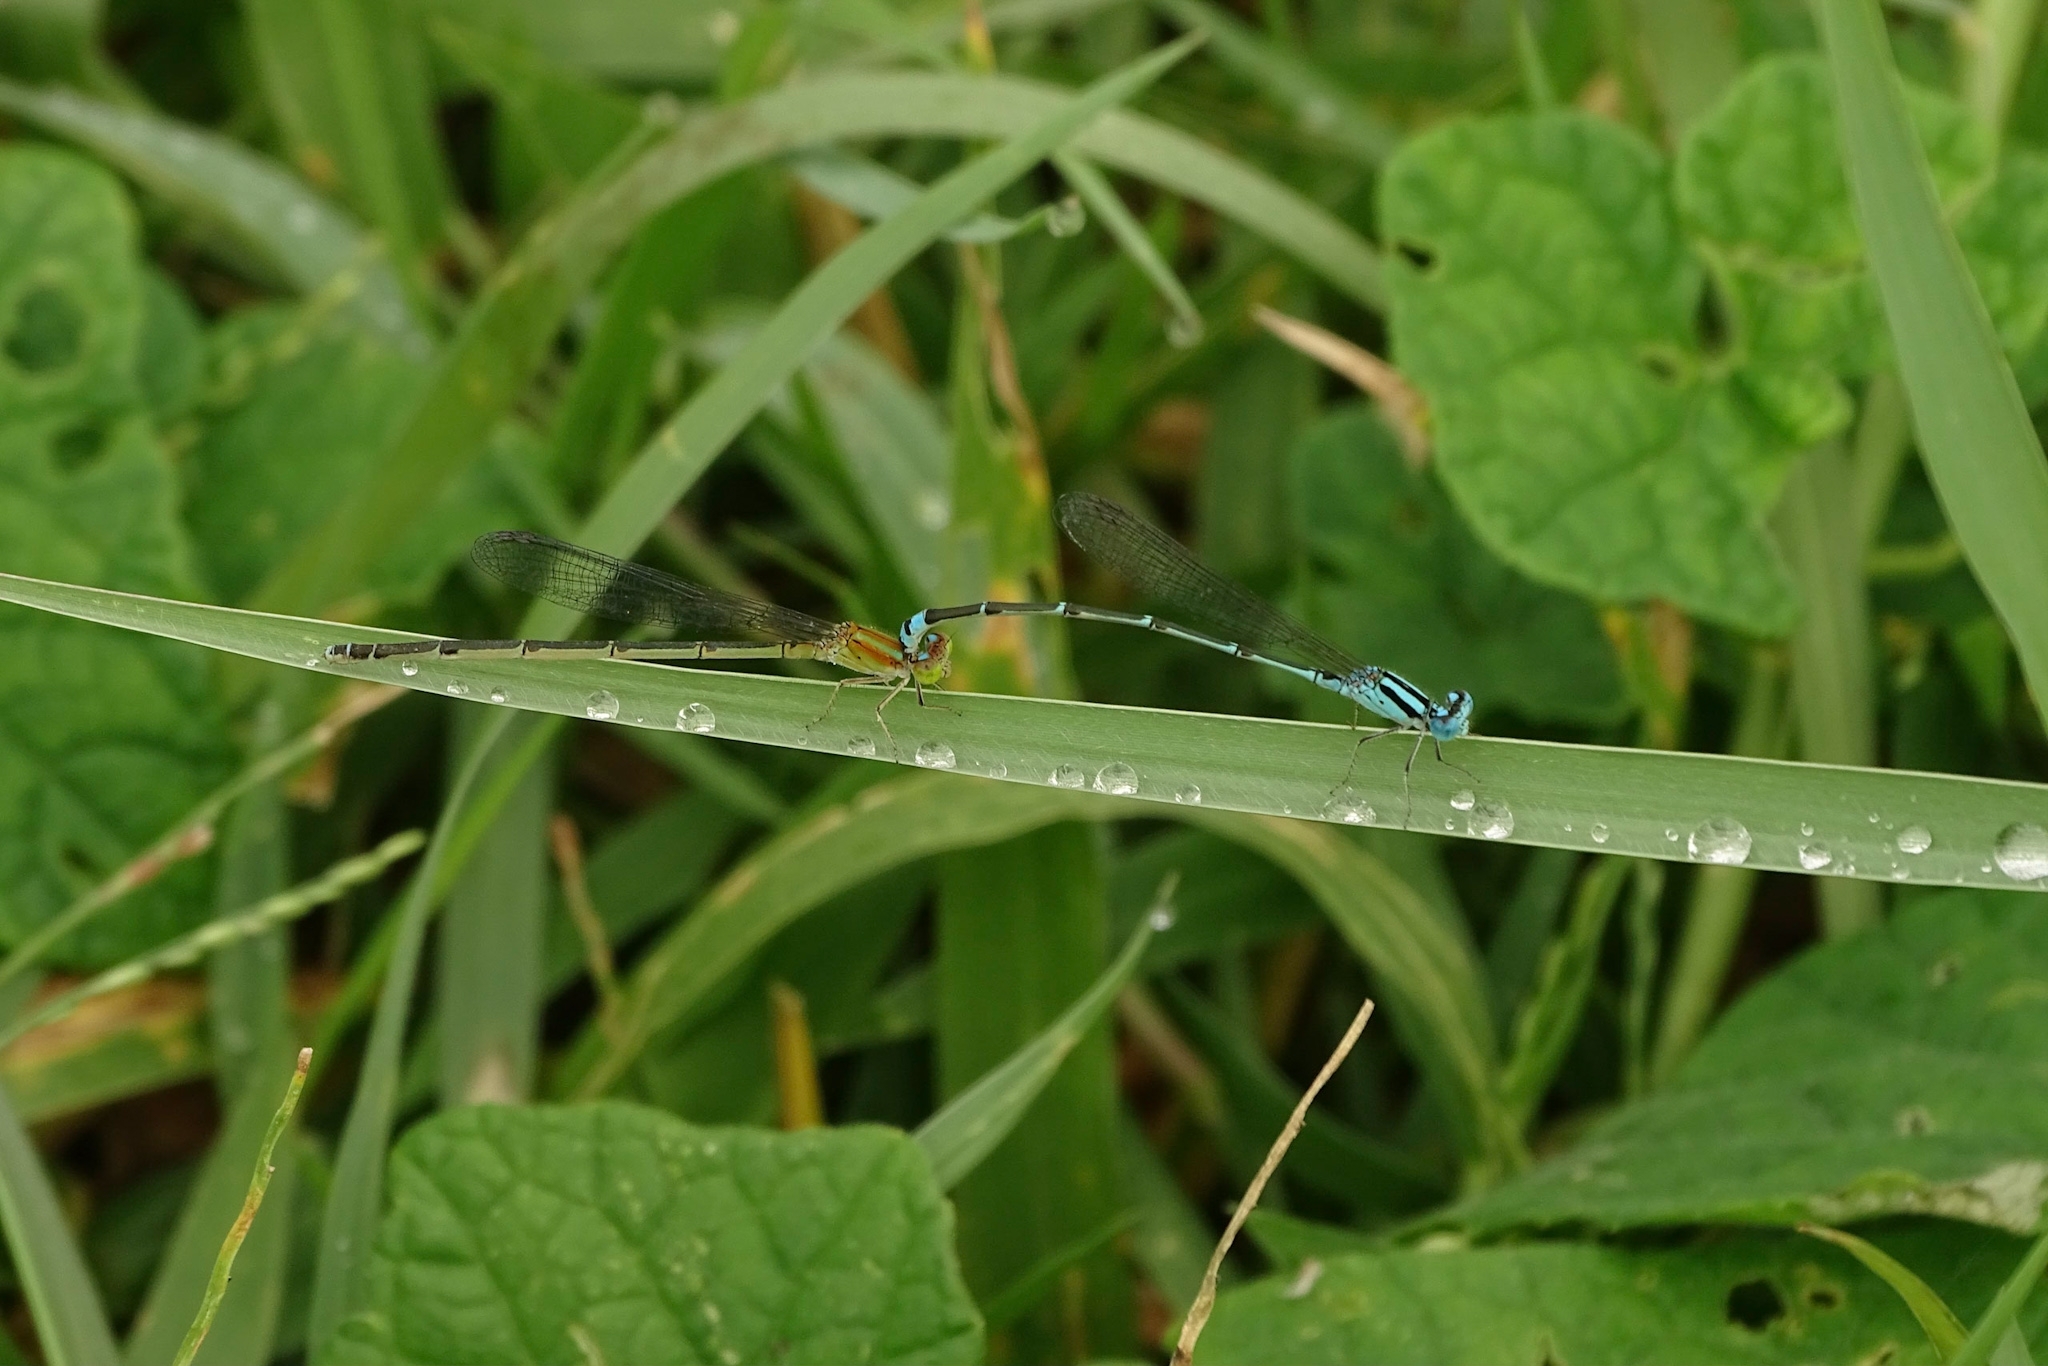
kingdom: Animalia
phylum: Arthropoda
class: Insecta
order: Odonata
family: Coenagrionidae
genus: Pseudagrion
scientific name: Pseudagrion microcephalum
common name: Blue riverdamsel
